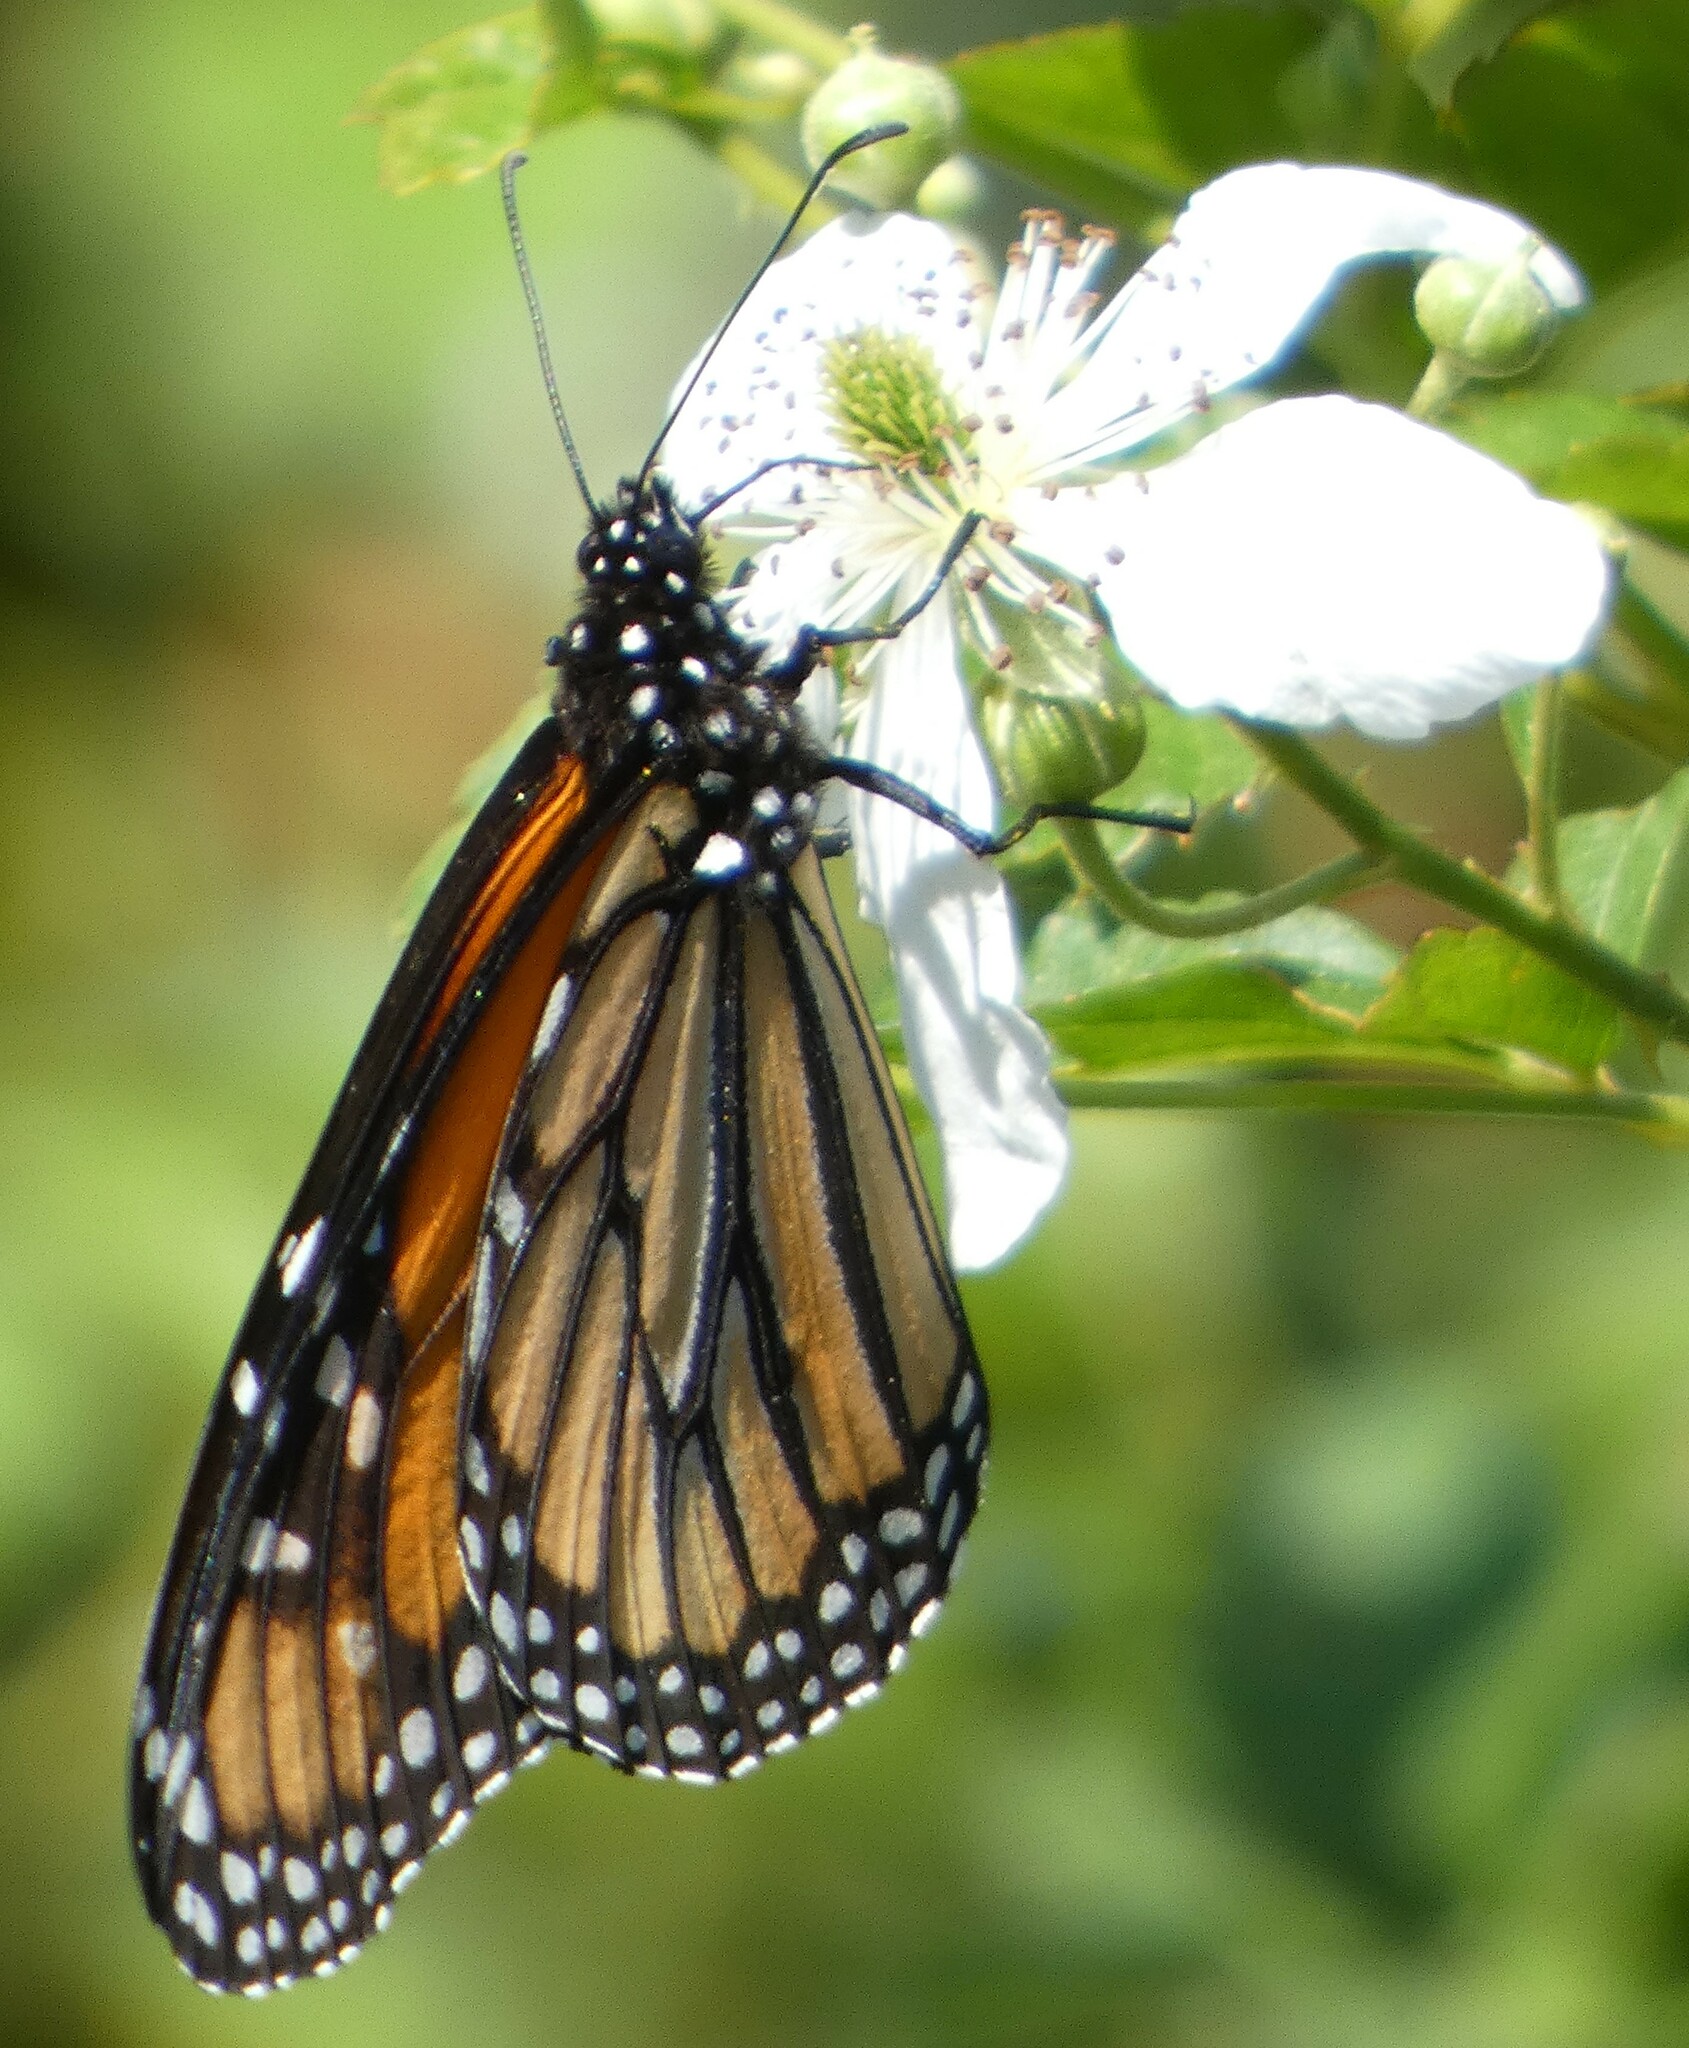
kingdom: Animalia
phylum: Arthropoda
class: Insecta
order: Lepidoptera
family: Nymphalidae
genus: Danaus
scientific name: Danaus plexippus
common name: Monarch
